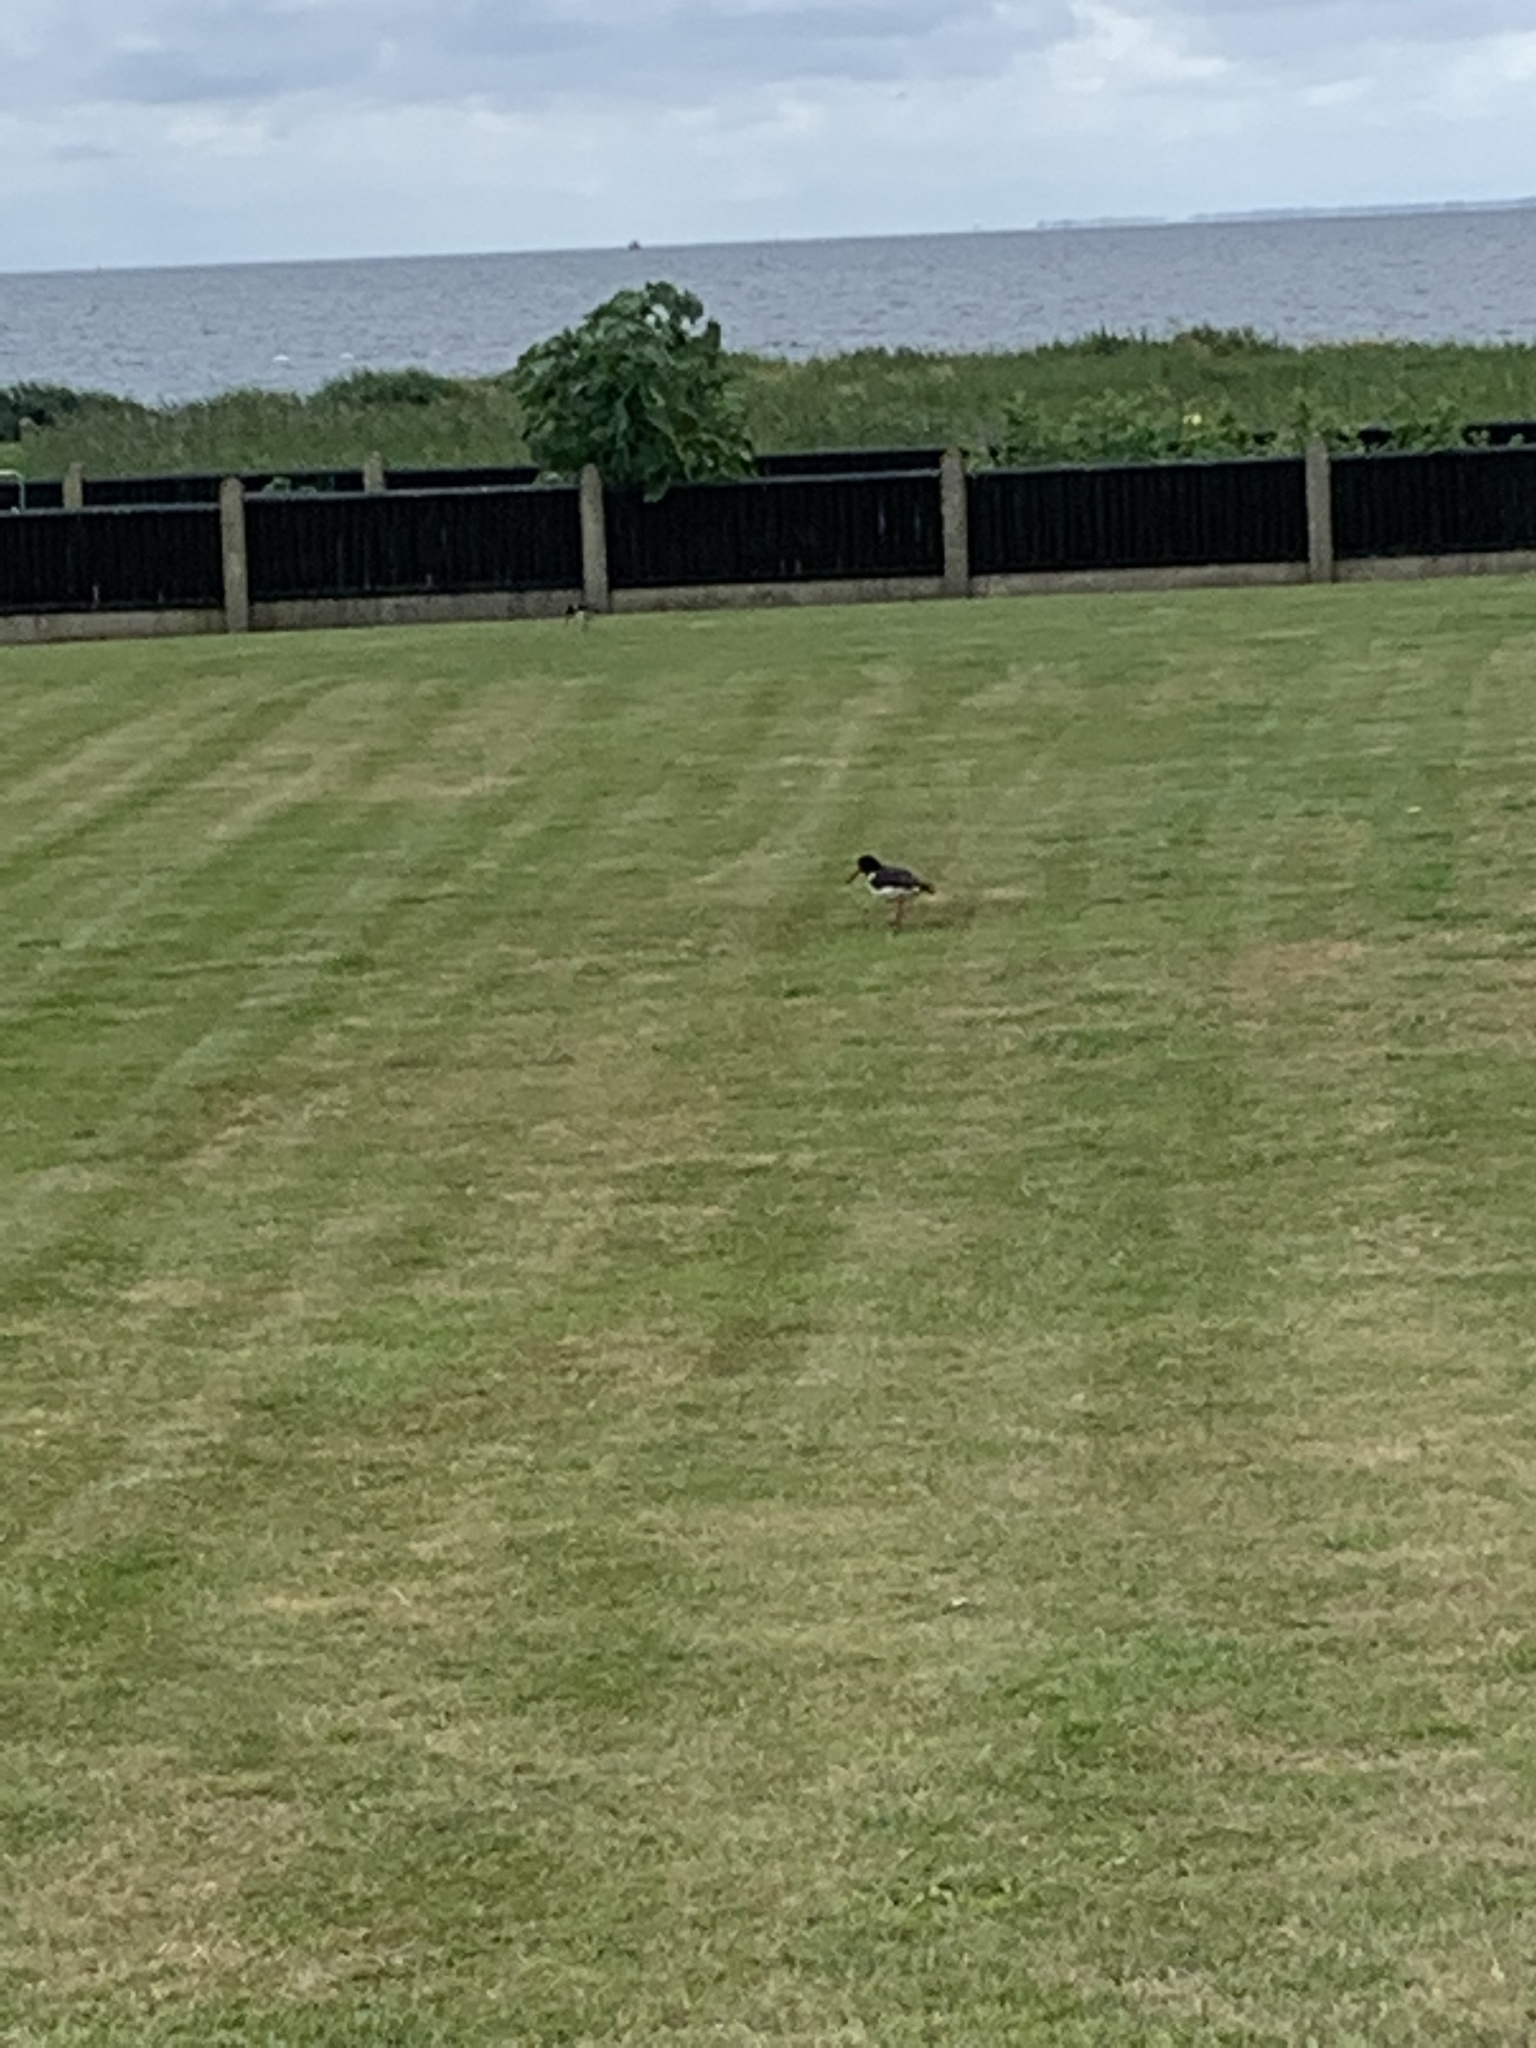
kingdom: Animalia
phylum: Chordata
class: Aves
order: Charadriiformes
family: Haematopodidae
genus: Haematopus
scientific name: Haematopus ostralegus
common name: Eurasian oystercatcher
